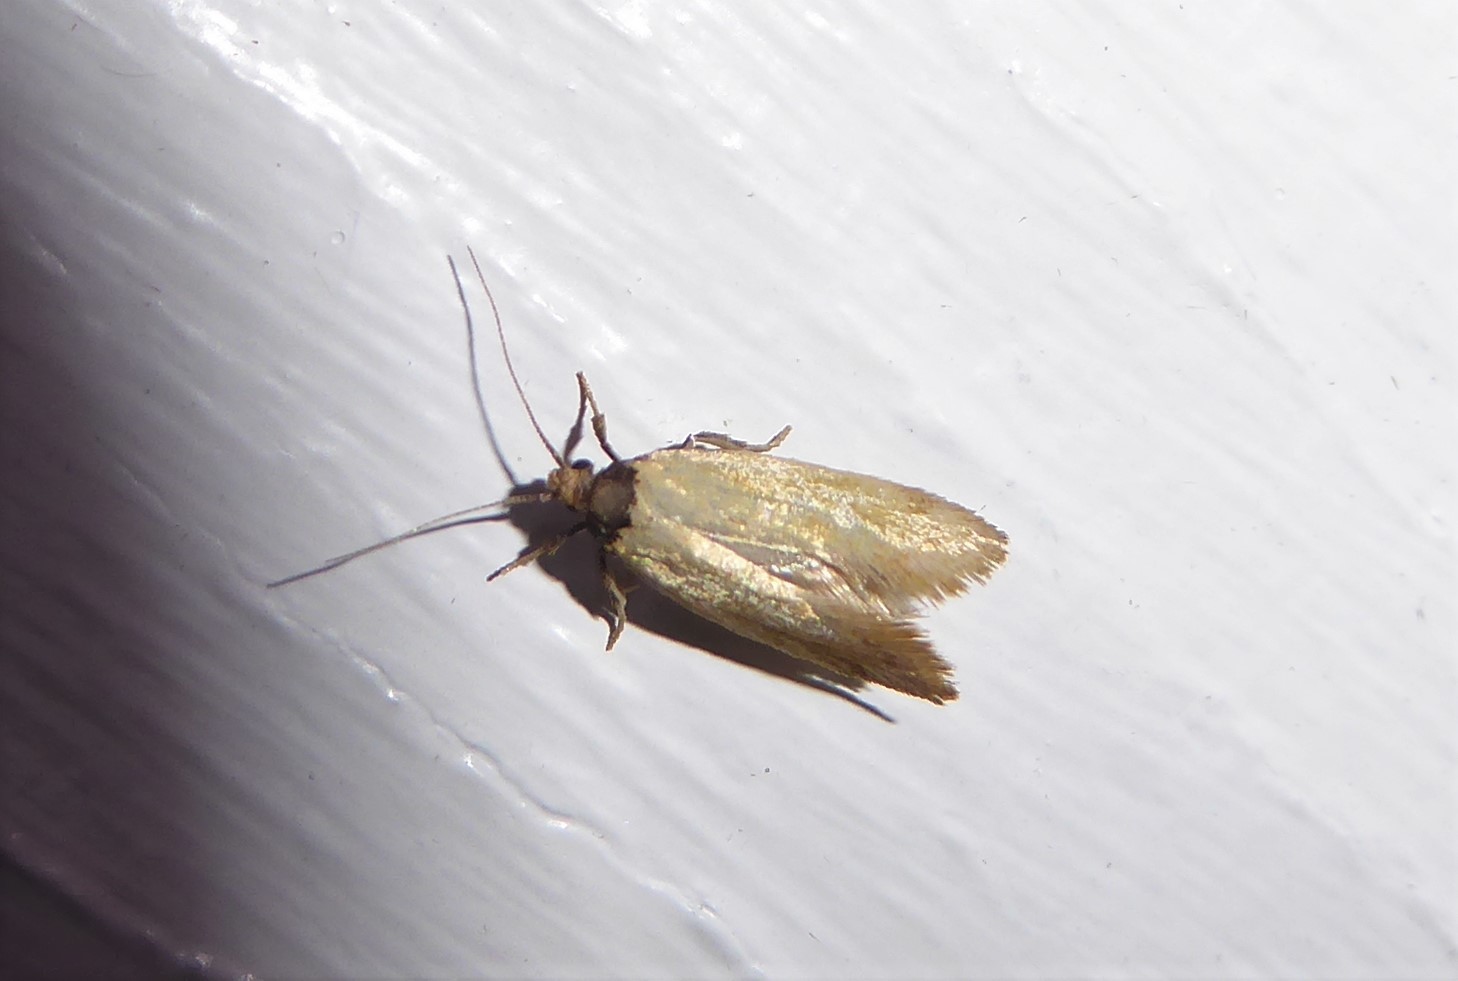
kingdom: Animalia
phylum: Arthropoda
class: Insecta
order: Lepidoptera
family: Oecophoridae
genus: Tingena
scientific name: Tingena melinella
